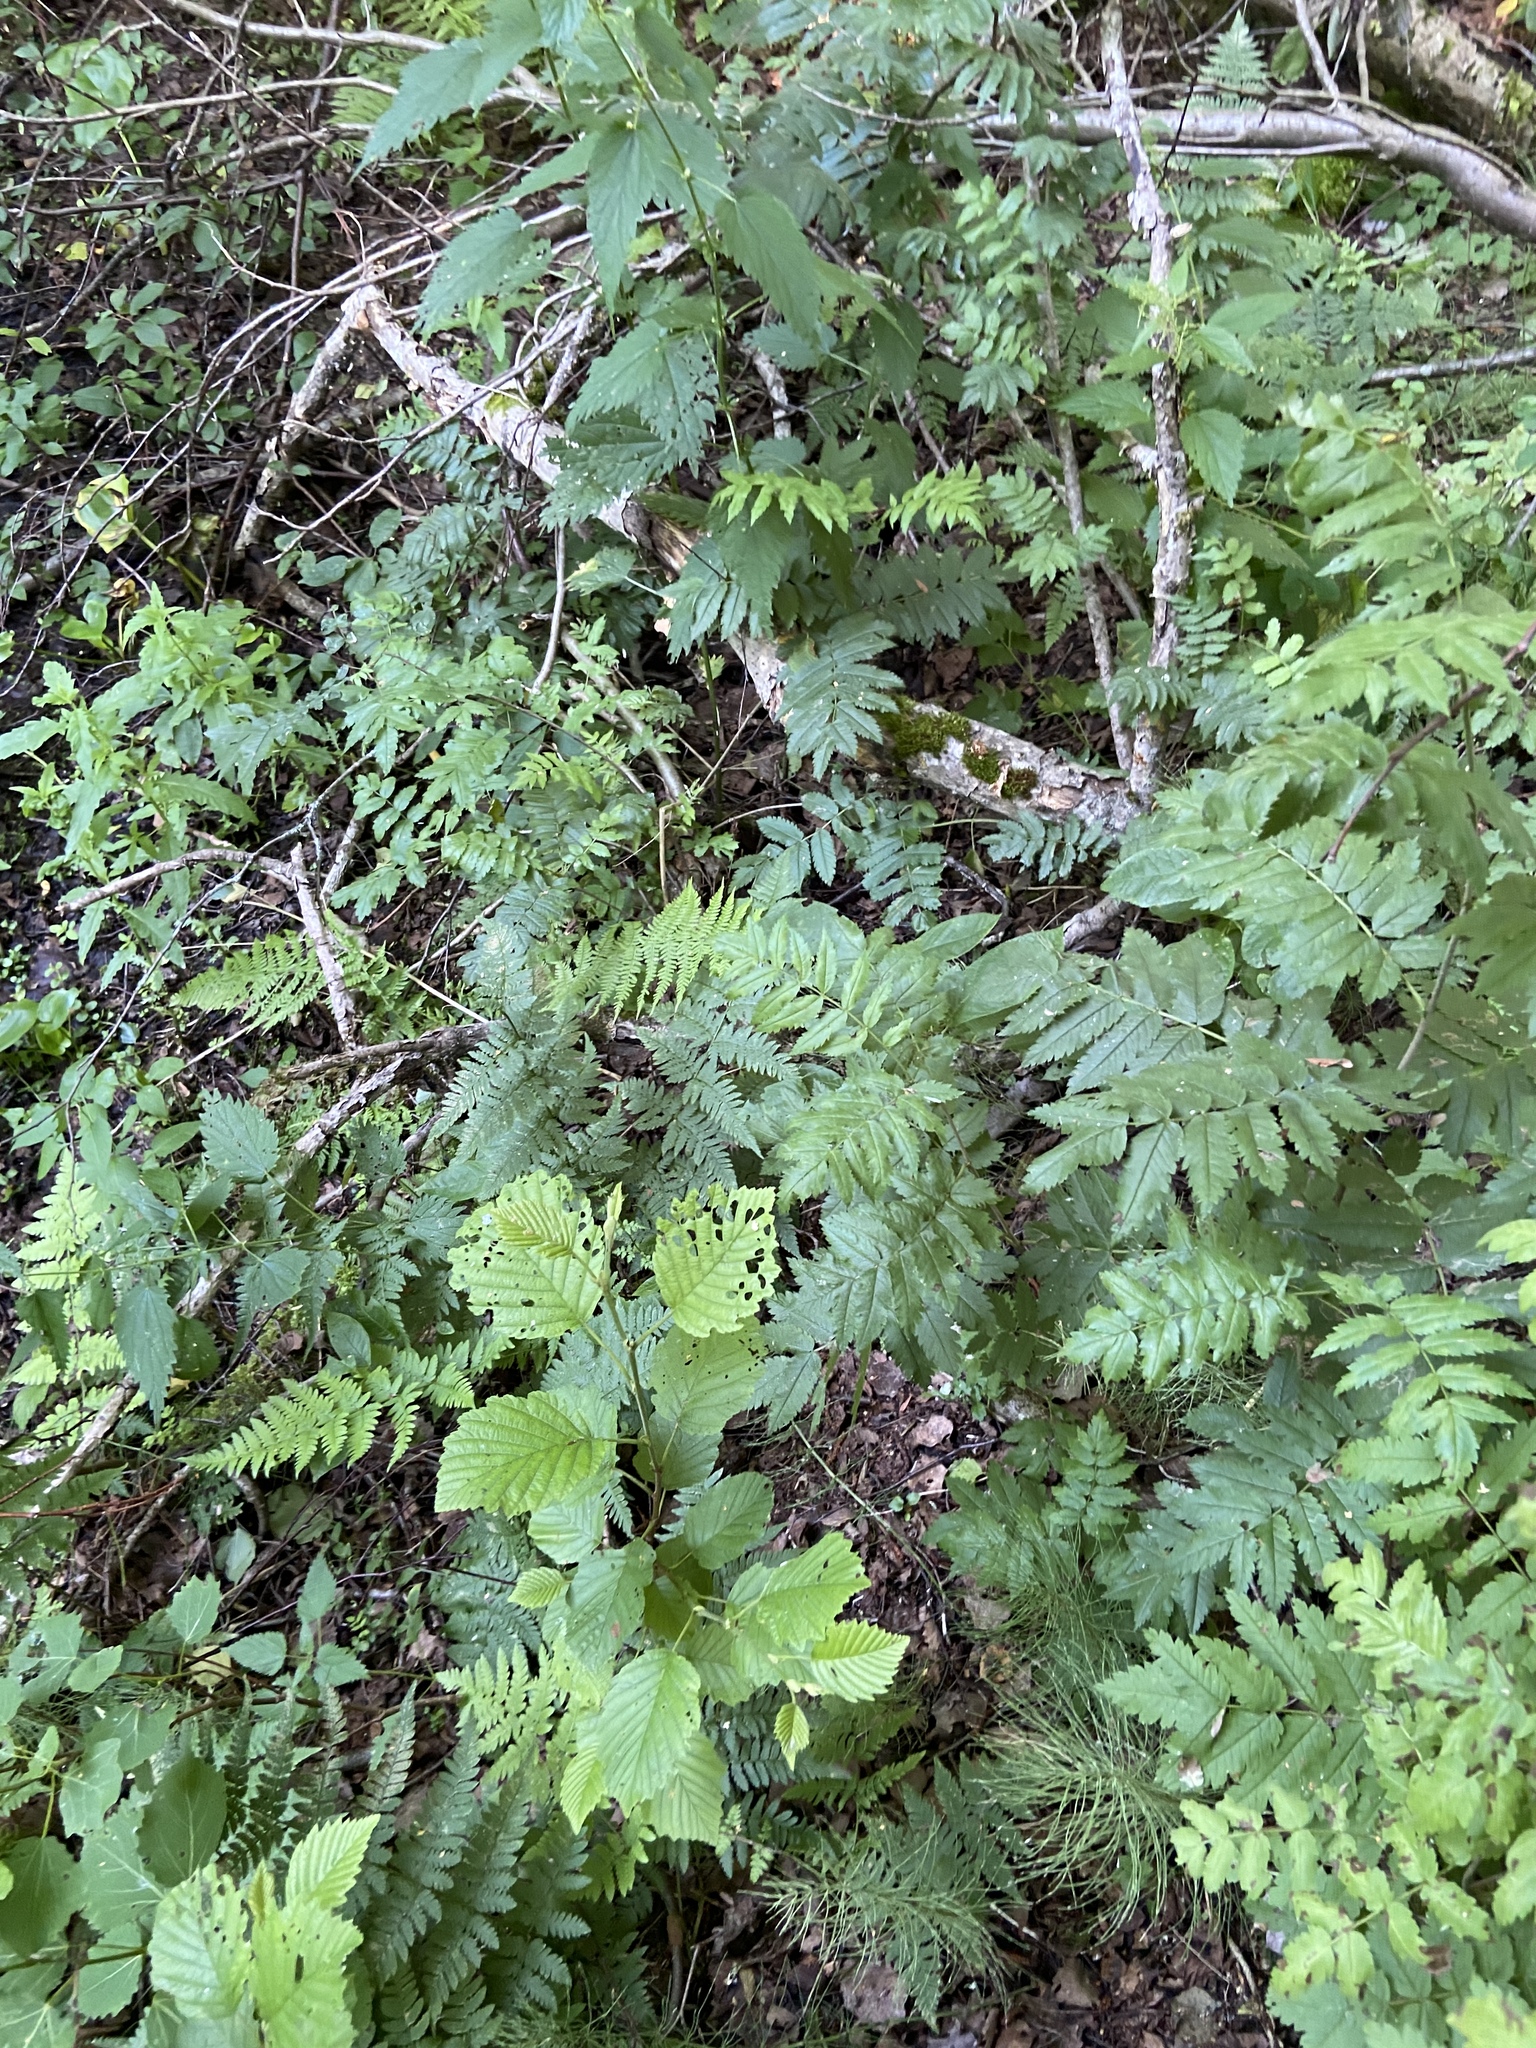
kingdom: Plantae
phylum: Tracheophyta
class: Magnoliopsida
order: Rosales
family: Rosaceae
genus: Sorbus
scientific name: Sorbus aucuparia
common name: Rowan
